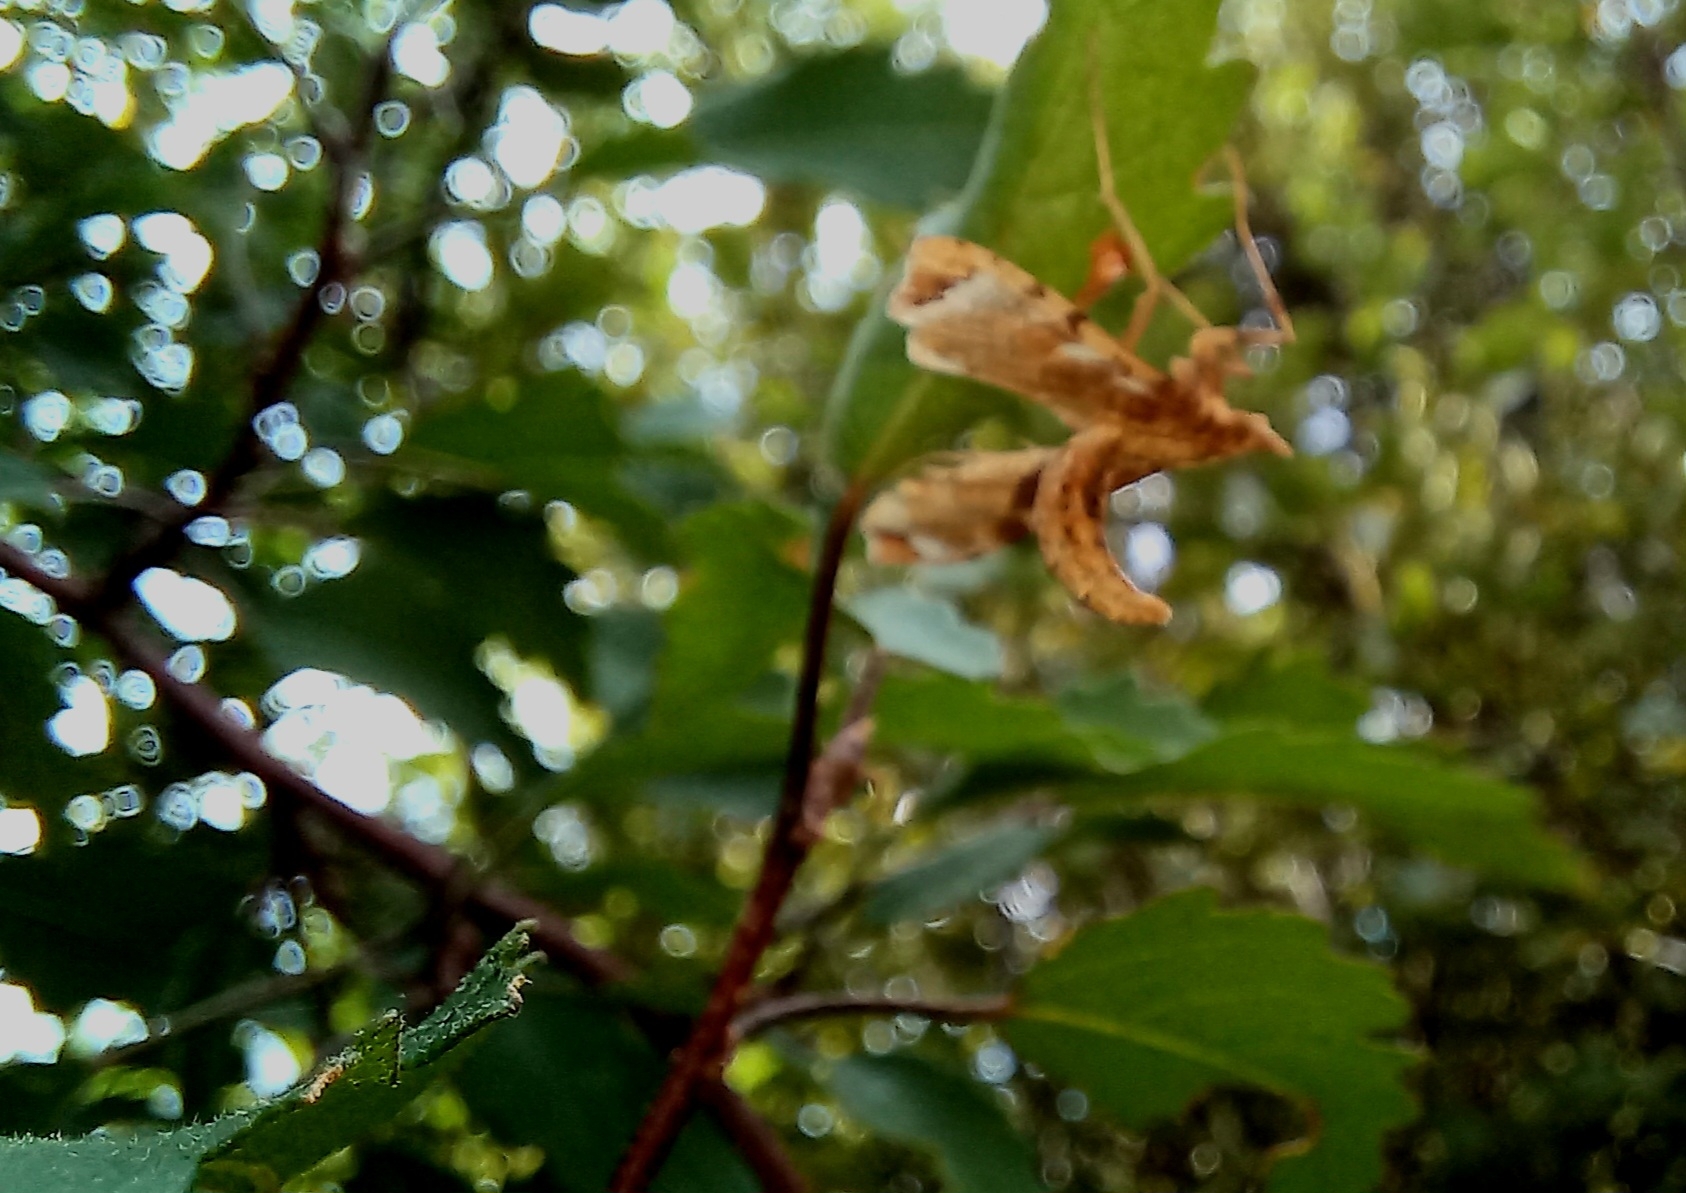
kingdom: Animalia
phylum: Arthropoda
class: Insecta
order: Lepidoptera
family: Crambidae
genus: Sceliodes
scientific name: Sceliodes cordalis
